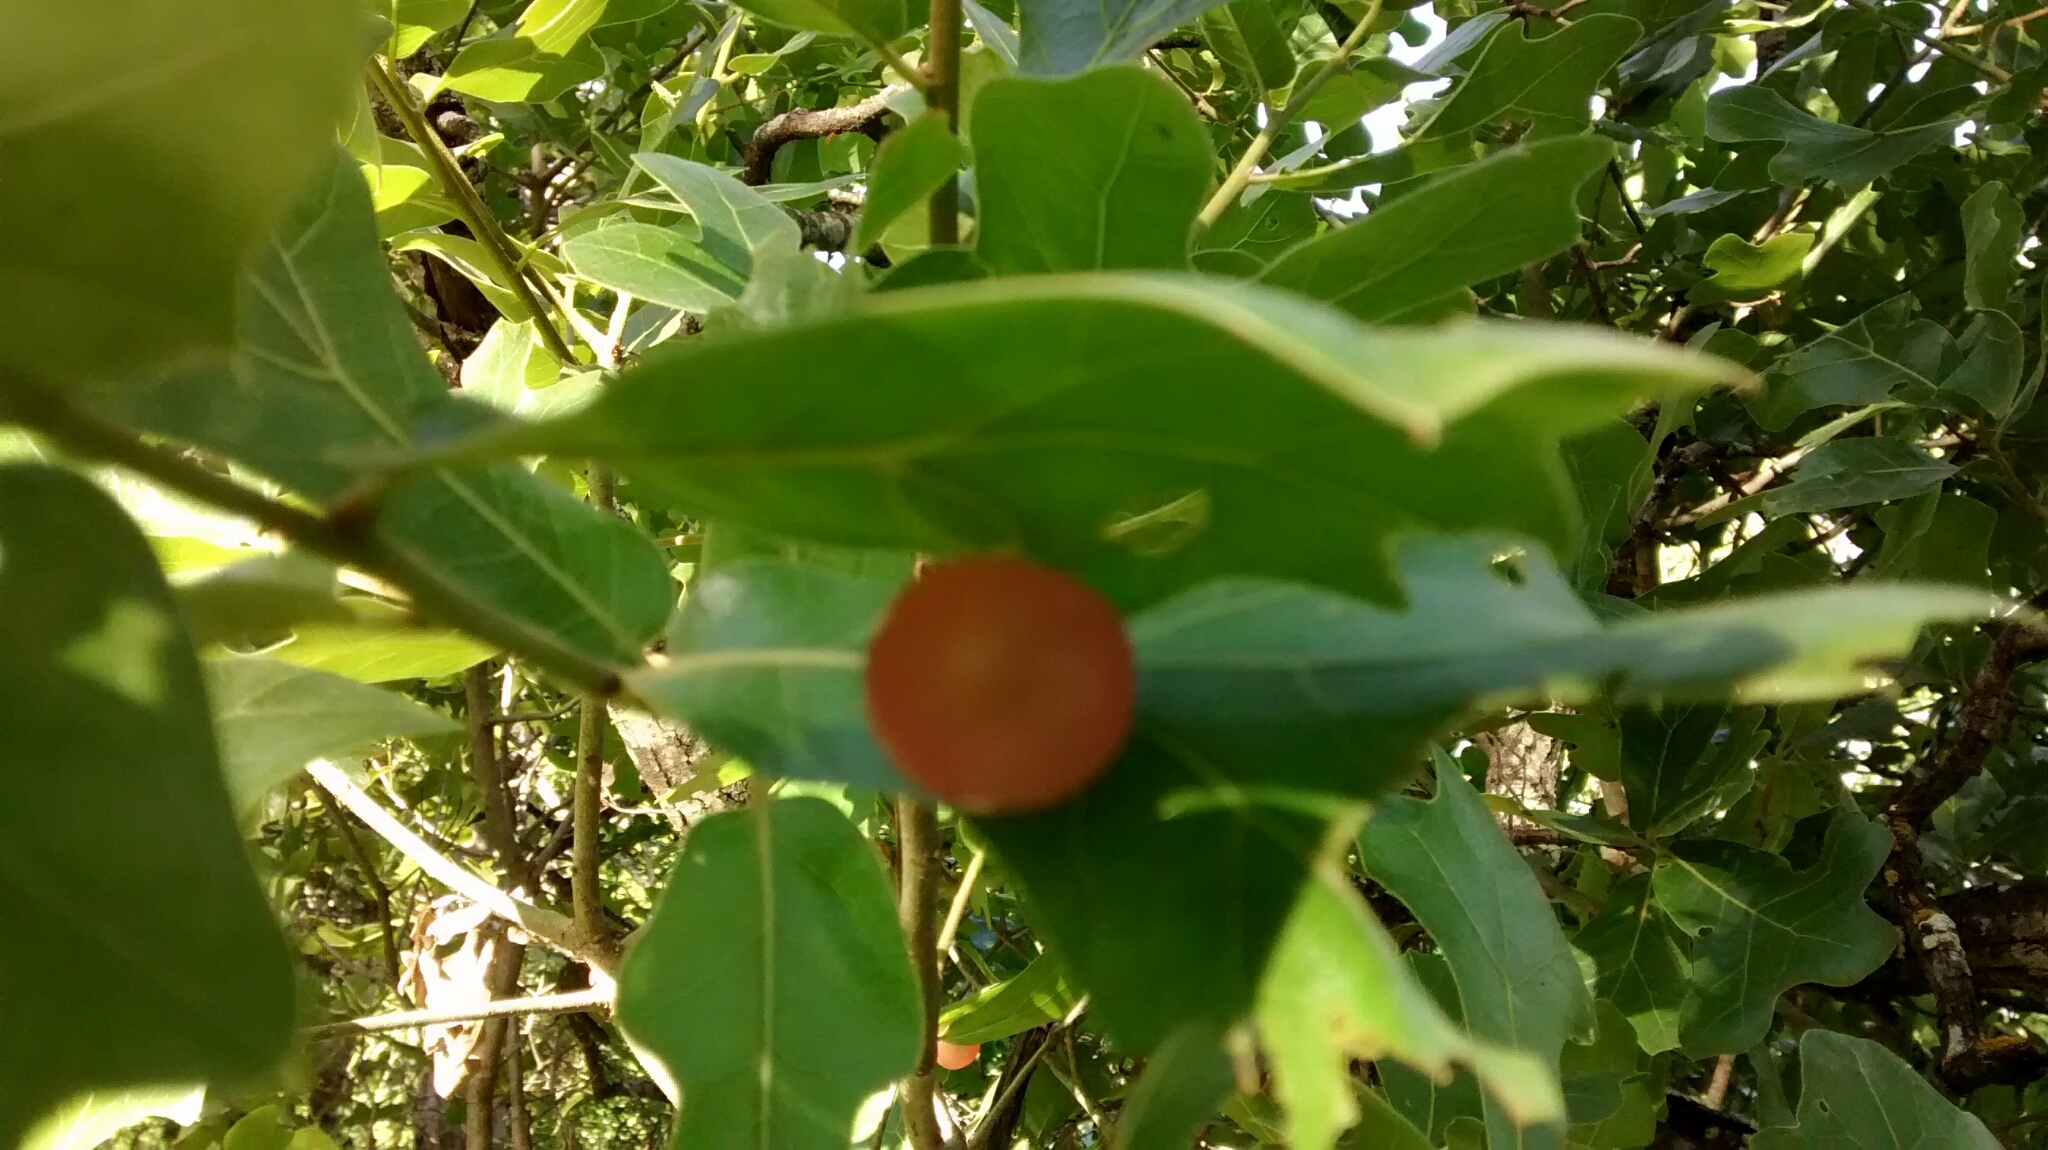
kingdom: Animalia
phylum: Arthropoda
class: Insecta
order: Hymenoptera
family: Cynipidae
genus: Trigonaspis
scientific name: Trigonaspis
